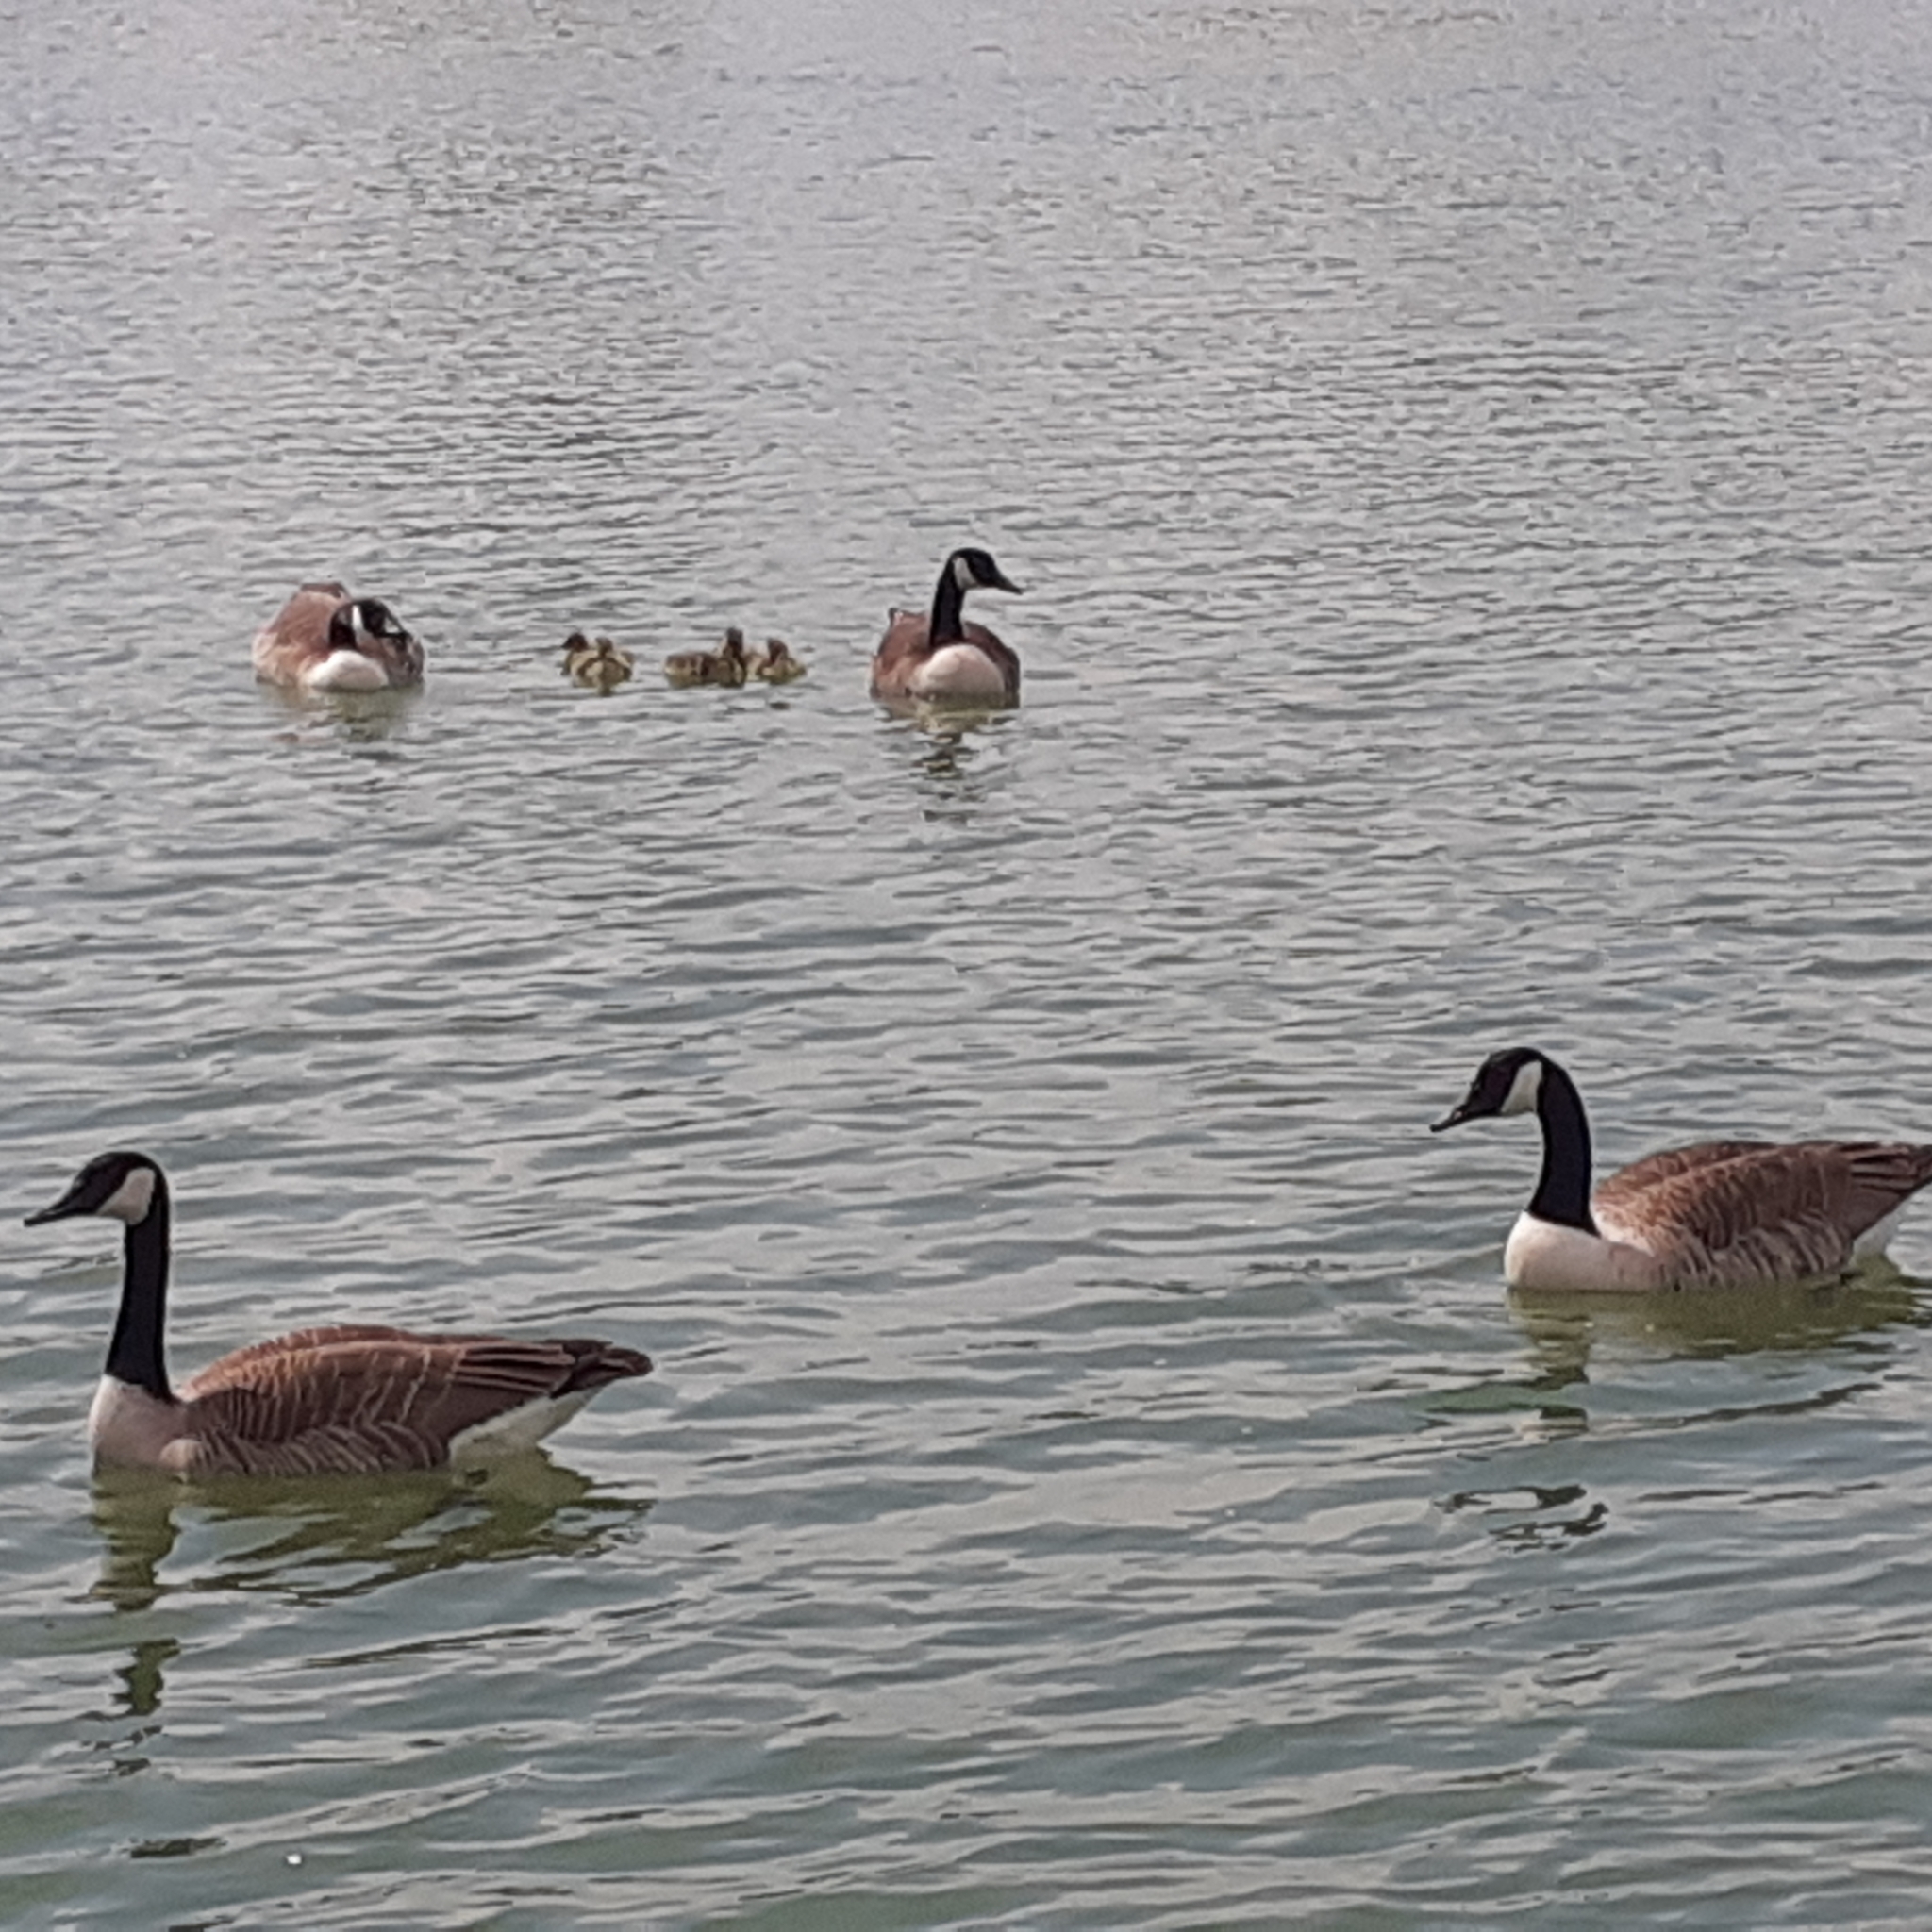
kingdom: Animalia
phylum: Chordata
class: Aves
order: Anseriformes
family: Anatidae
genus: Branta
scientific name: Branta canadensis
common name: Canada goose
